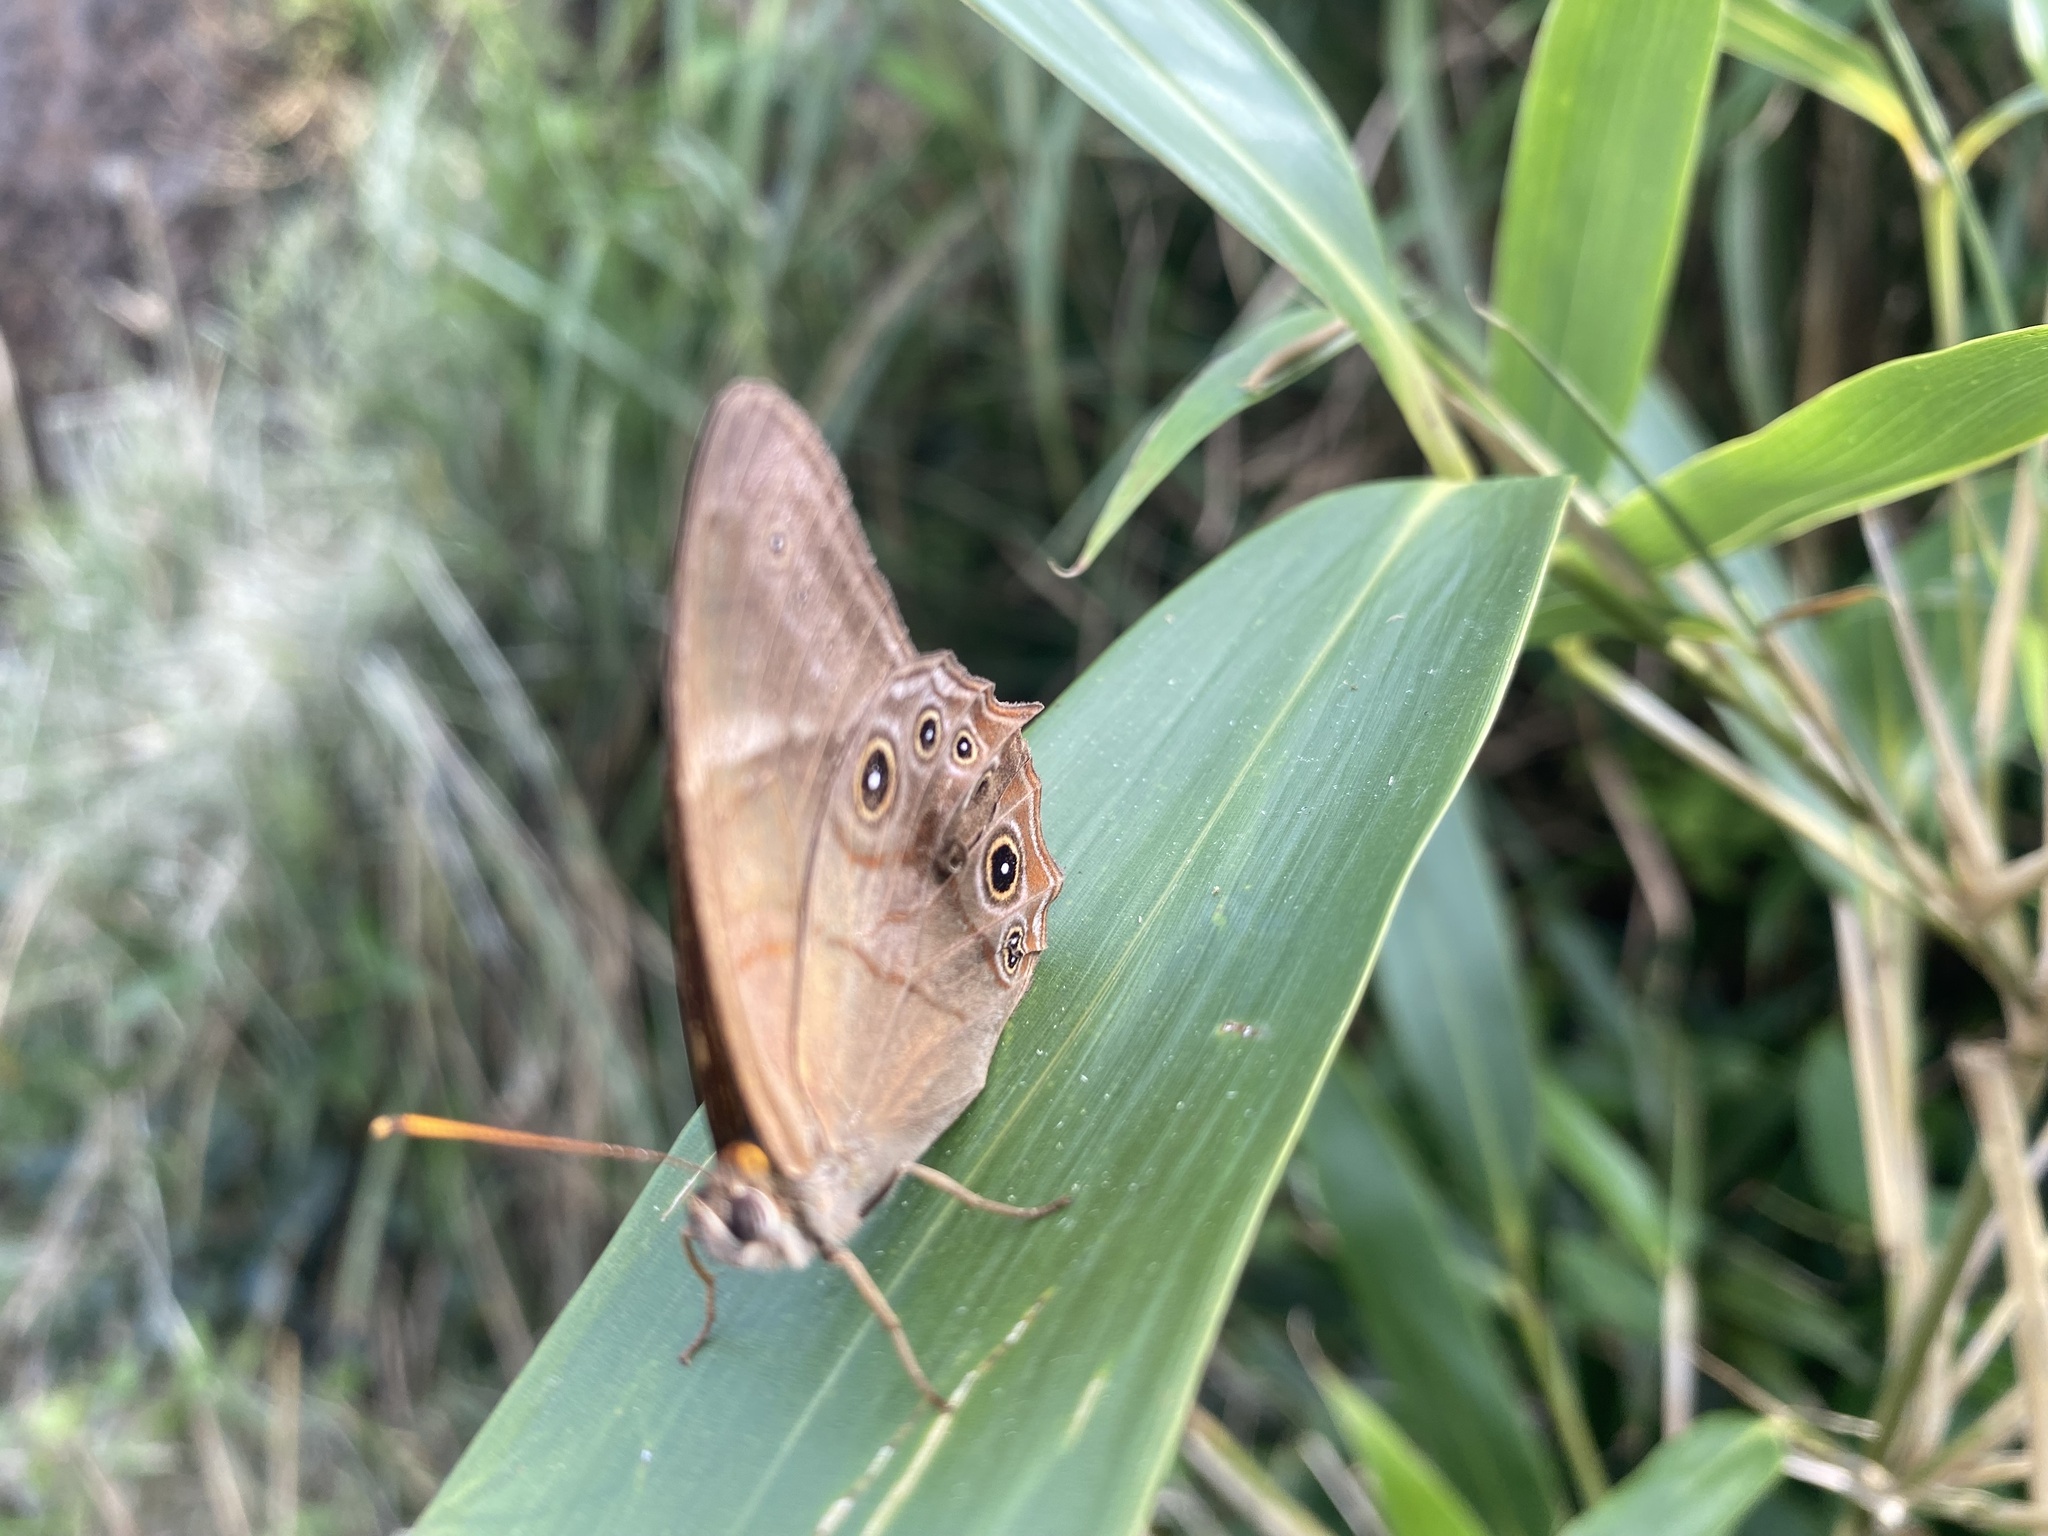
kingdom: Animalia
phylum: Arthropoda
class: Insecta
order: Lepidoptera
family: Nymphalidae
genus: Lethe
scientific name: Lethe hyrania
